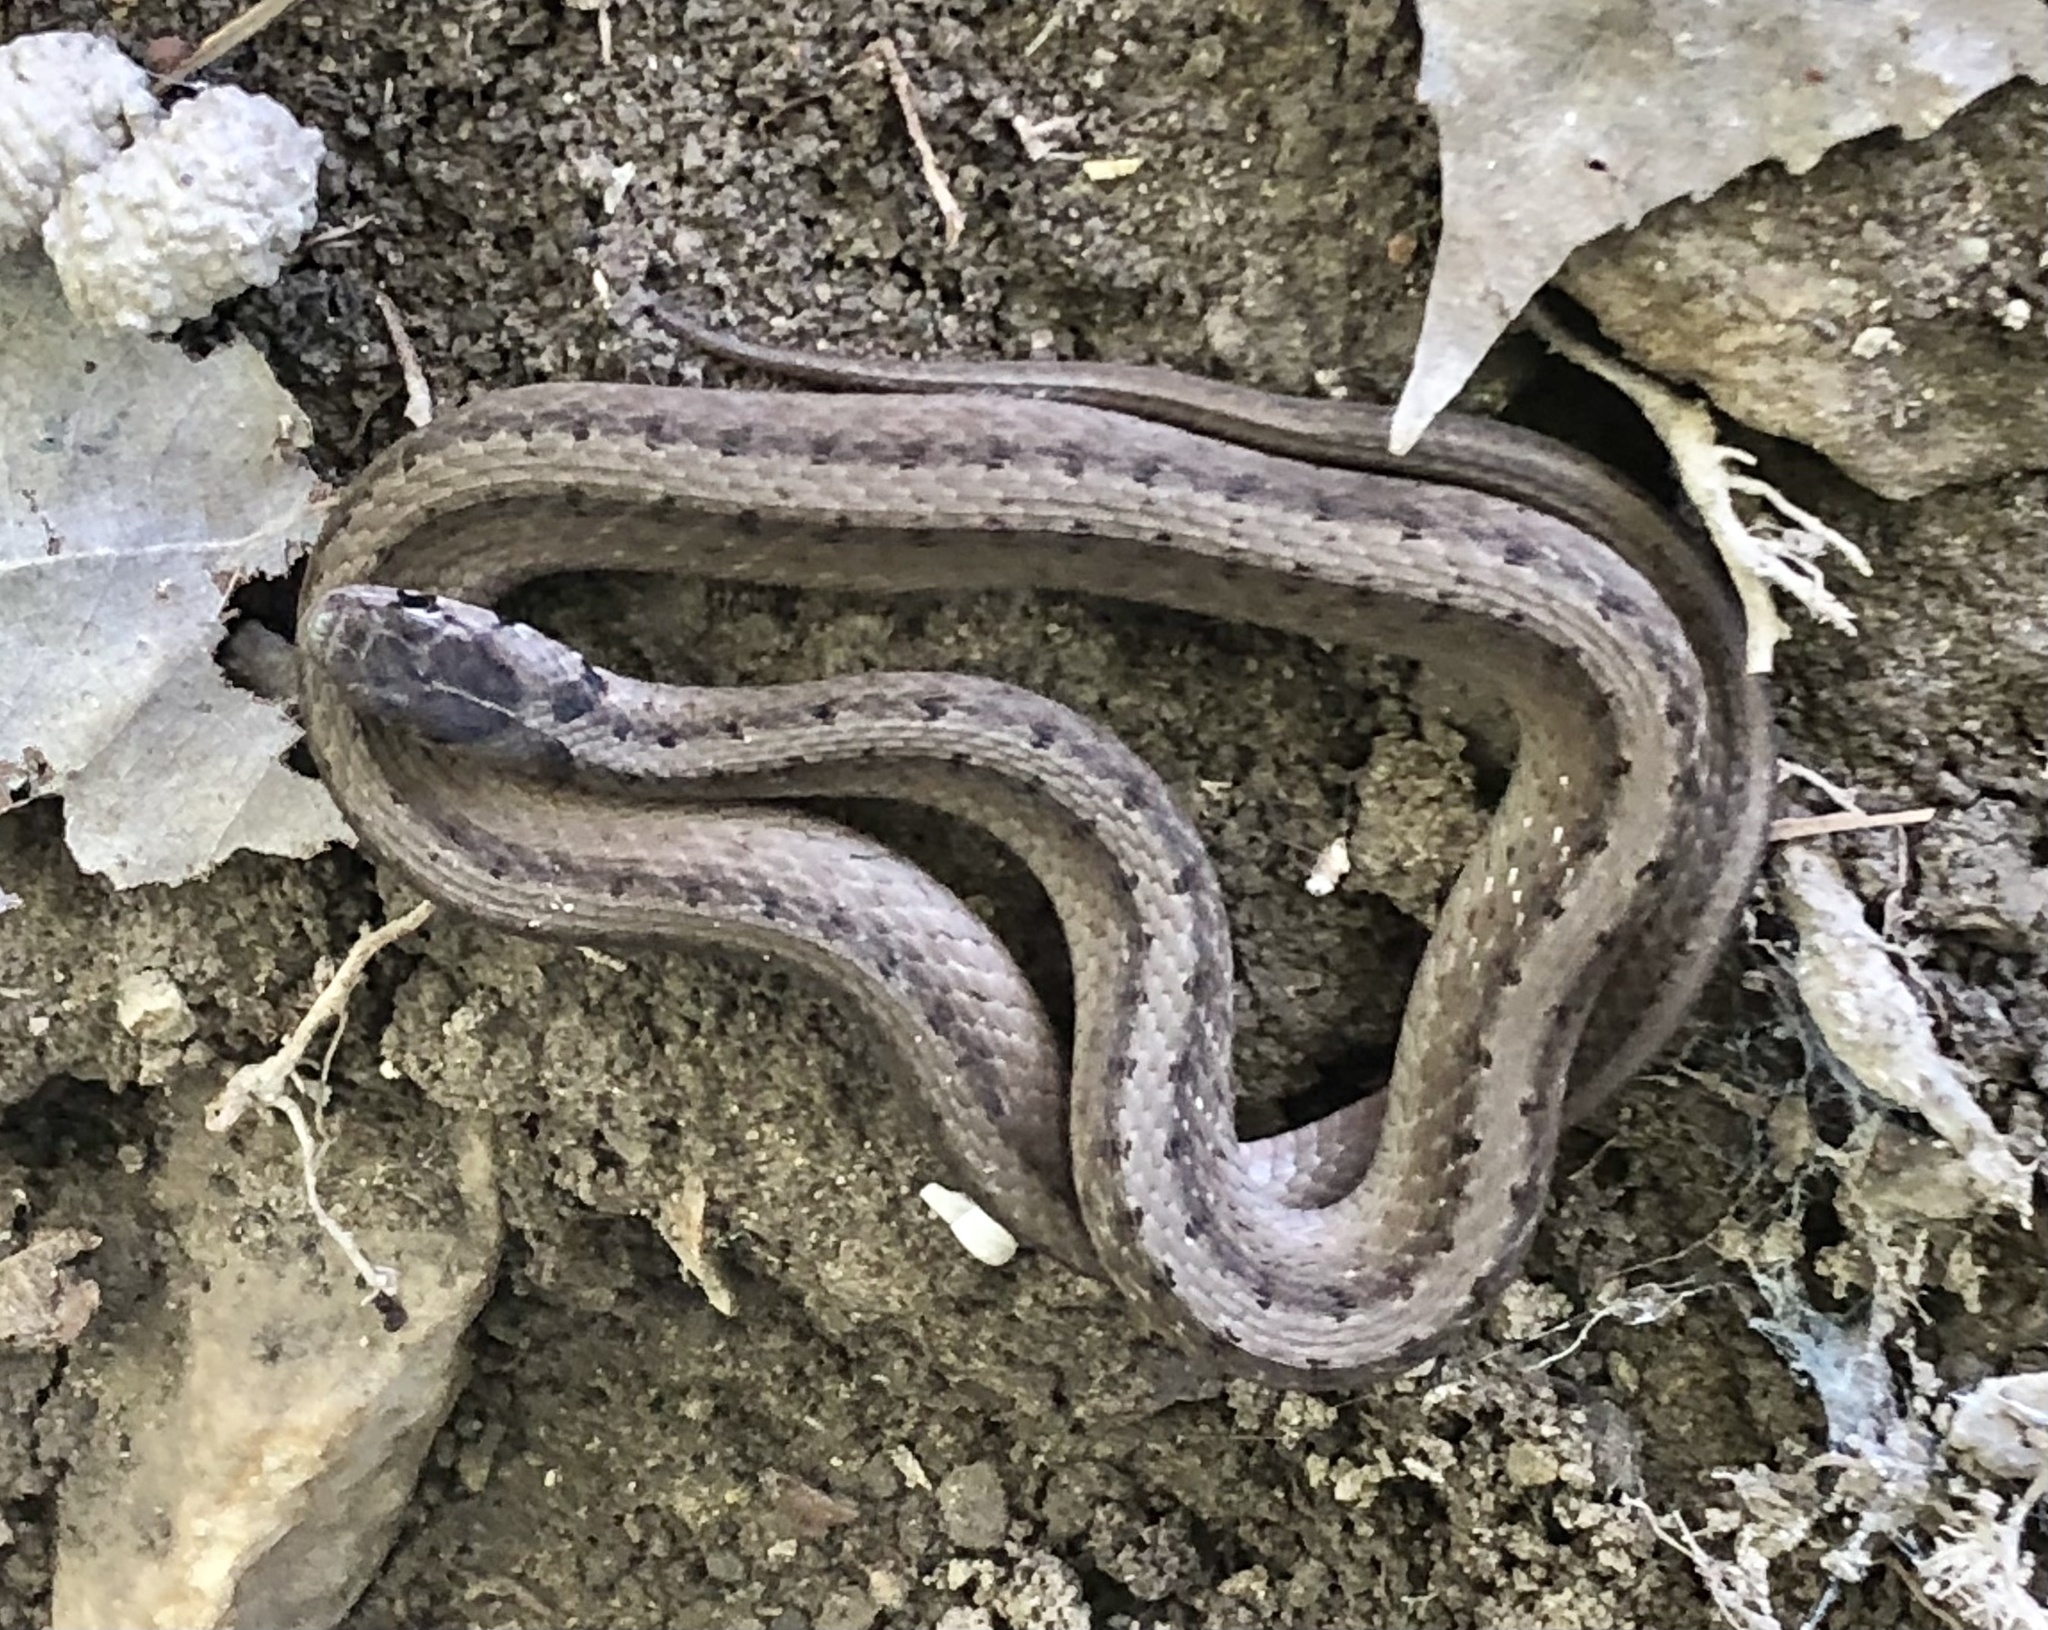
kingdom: Animalia
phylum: Chordata
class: Squamata
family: Colubridae
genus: Storeria
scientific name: Storeria dekayi
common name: (dekay’s) brown snake
